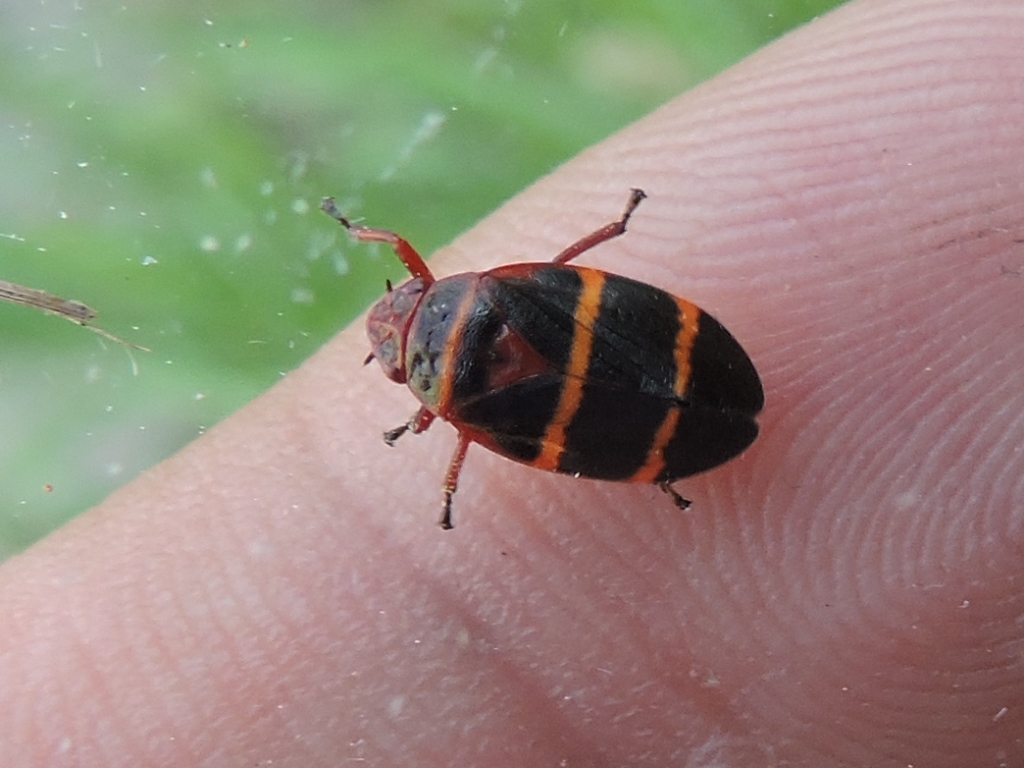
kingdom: Animalia
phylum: Arthropoda
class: Insecta
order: Hemiptera
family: Cercopidae
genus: Prosapia
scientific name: Prosapia bicincta
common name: Twolined spittlebug
